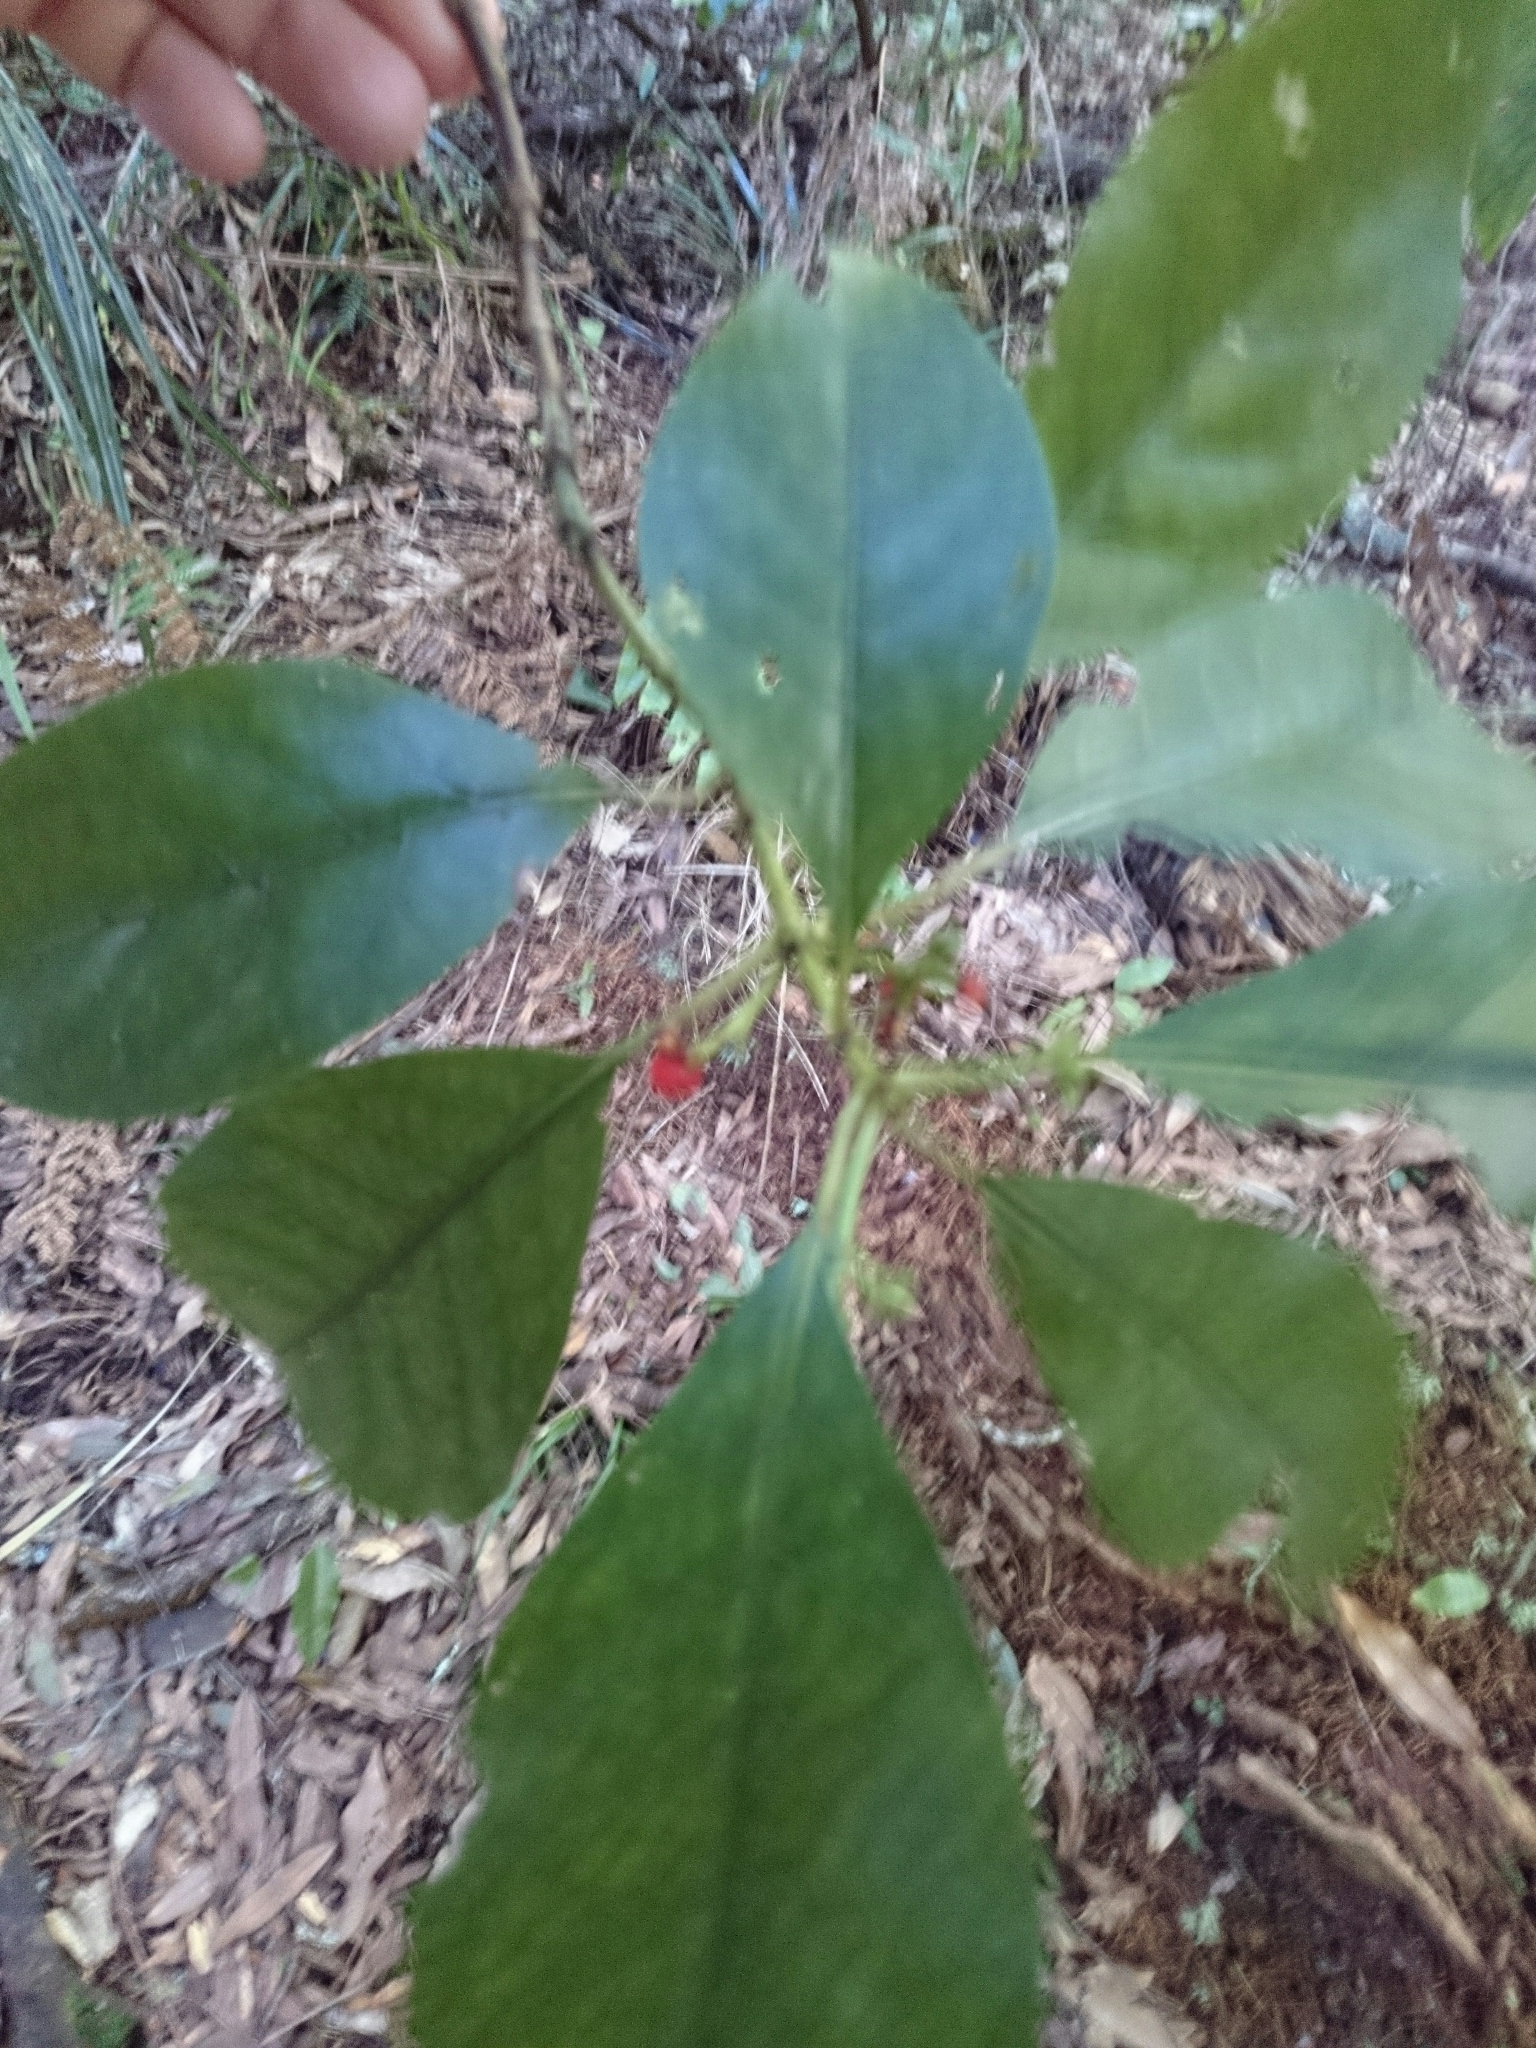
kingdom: Plantae
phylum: Tracheophyta
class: Magnoliopsida
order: Gentianales
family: Rubiaceae
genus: Coprosma
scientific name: Coprosma autumnalis
